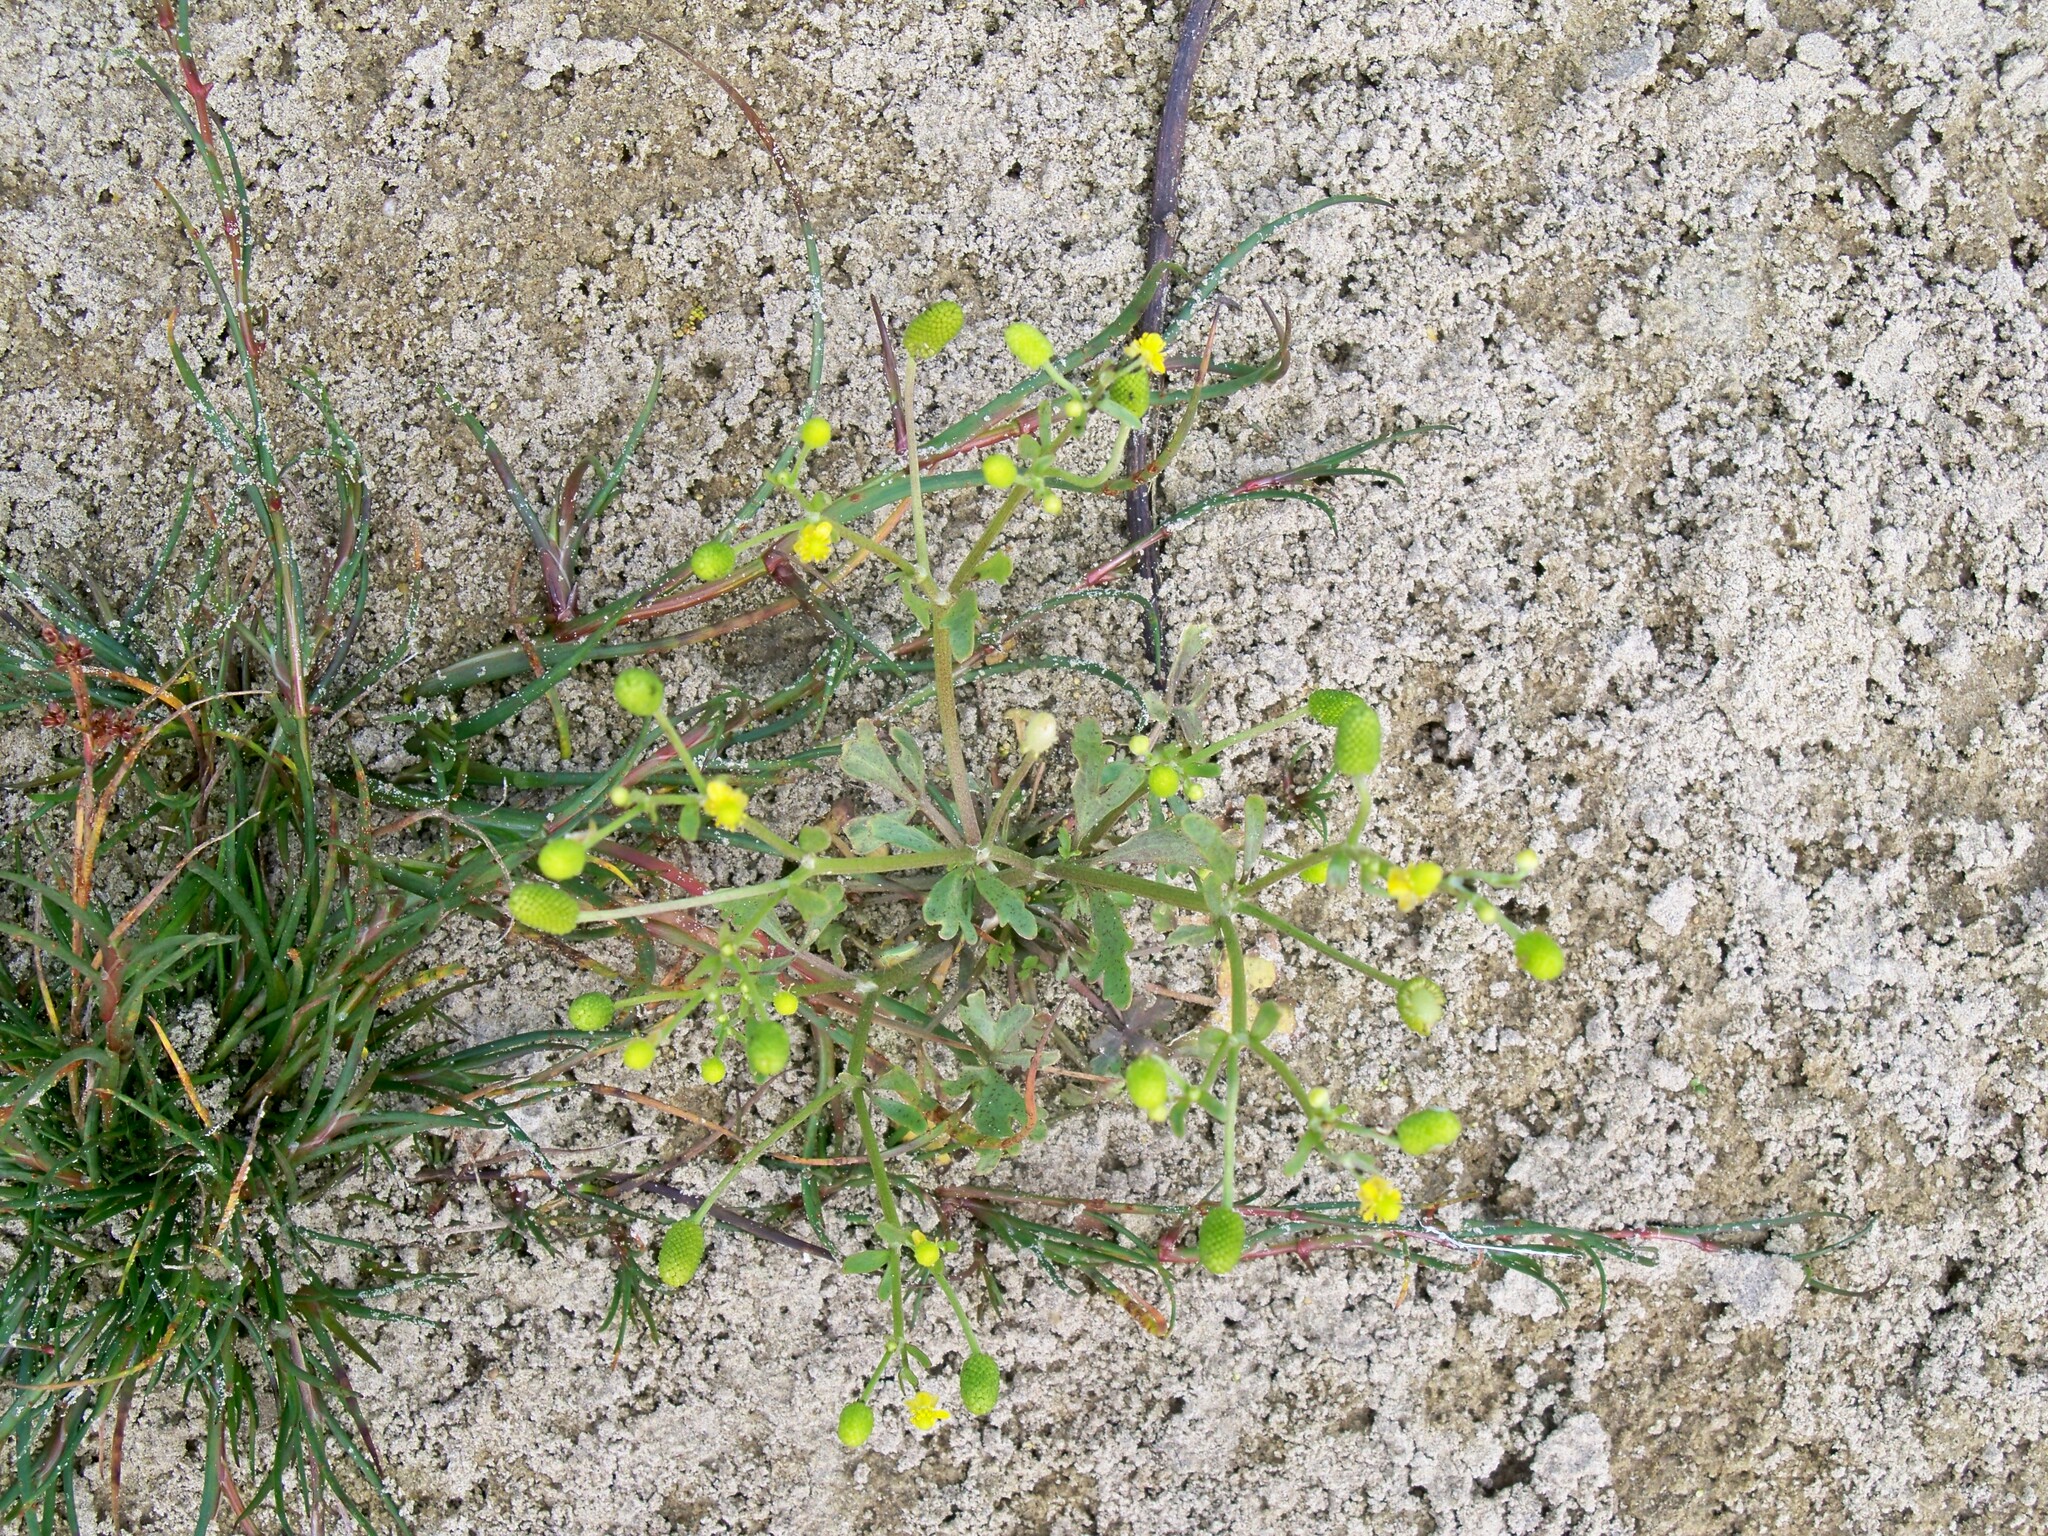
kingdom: Plantae
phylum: Tracheophyta
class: Magnoliopsida
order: Ranunculales
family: Ranunculaceae
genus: Ranunculus
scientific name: Ranunculus sceleratus
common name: Celery-leaved buttercup
